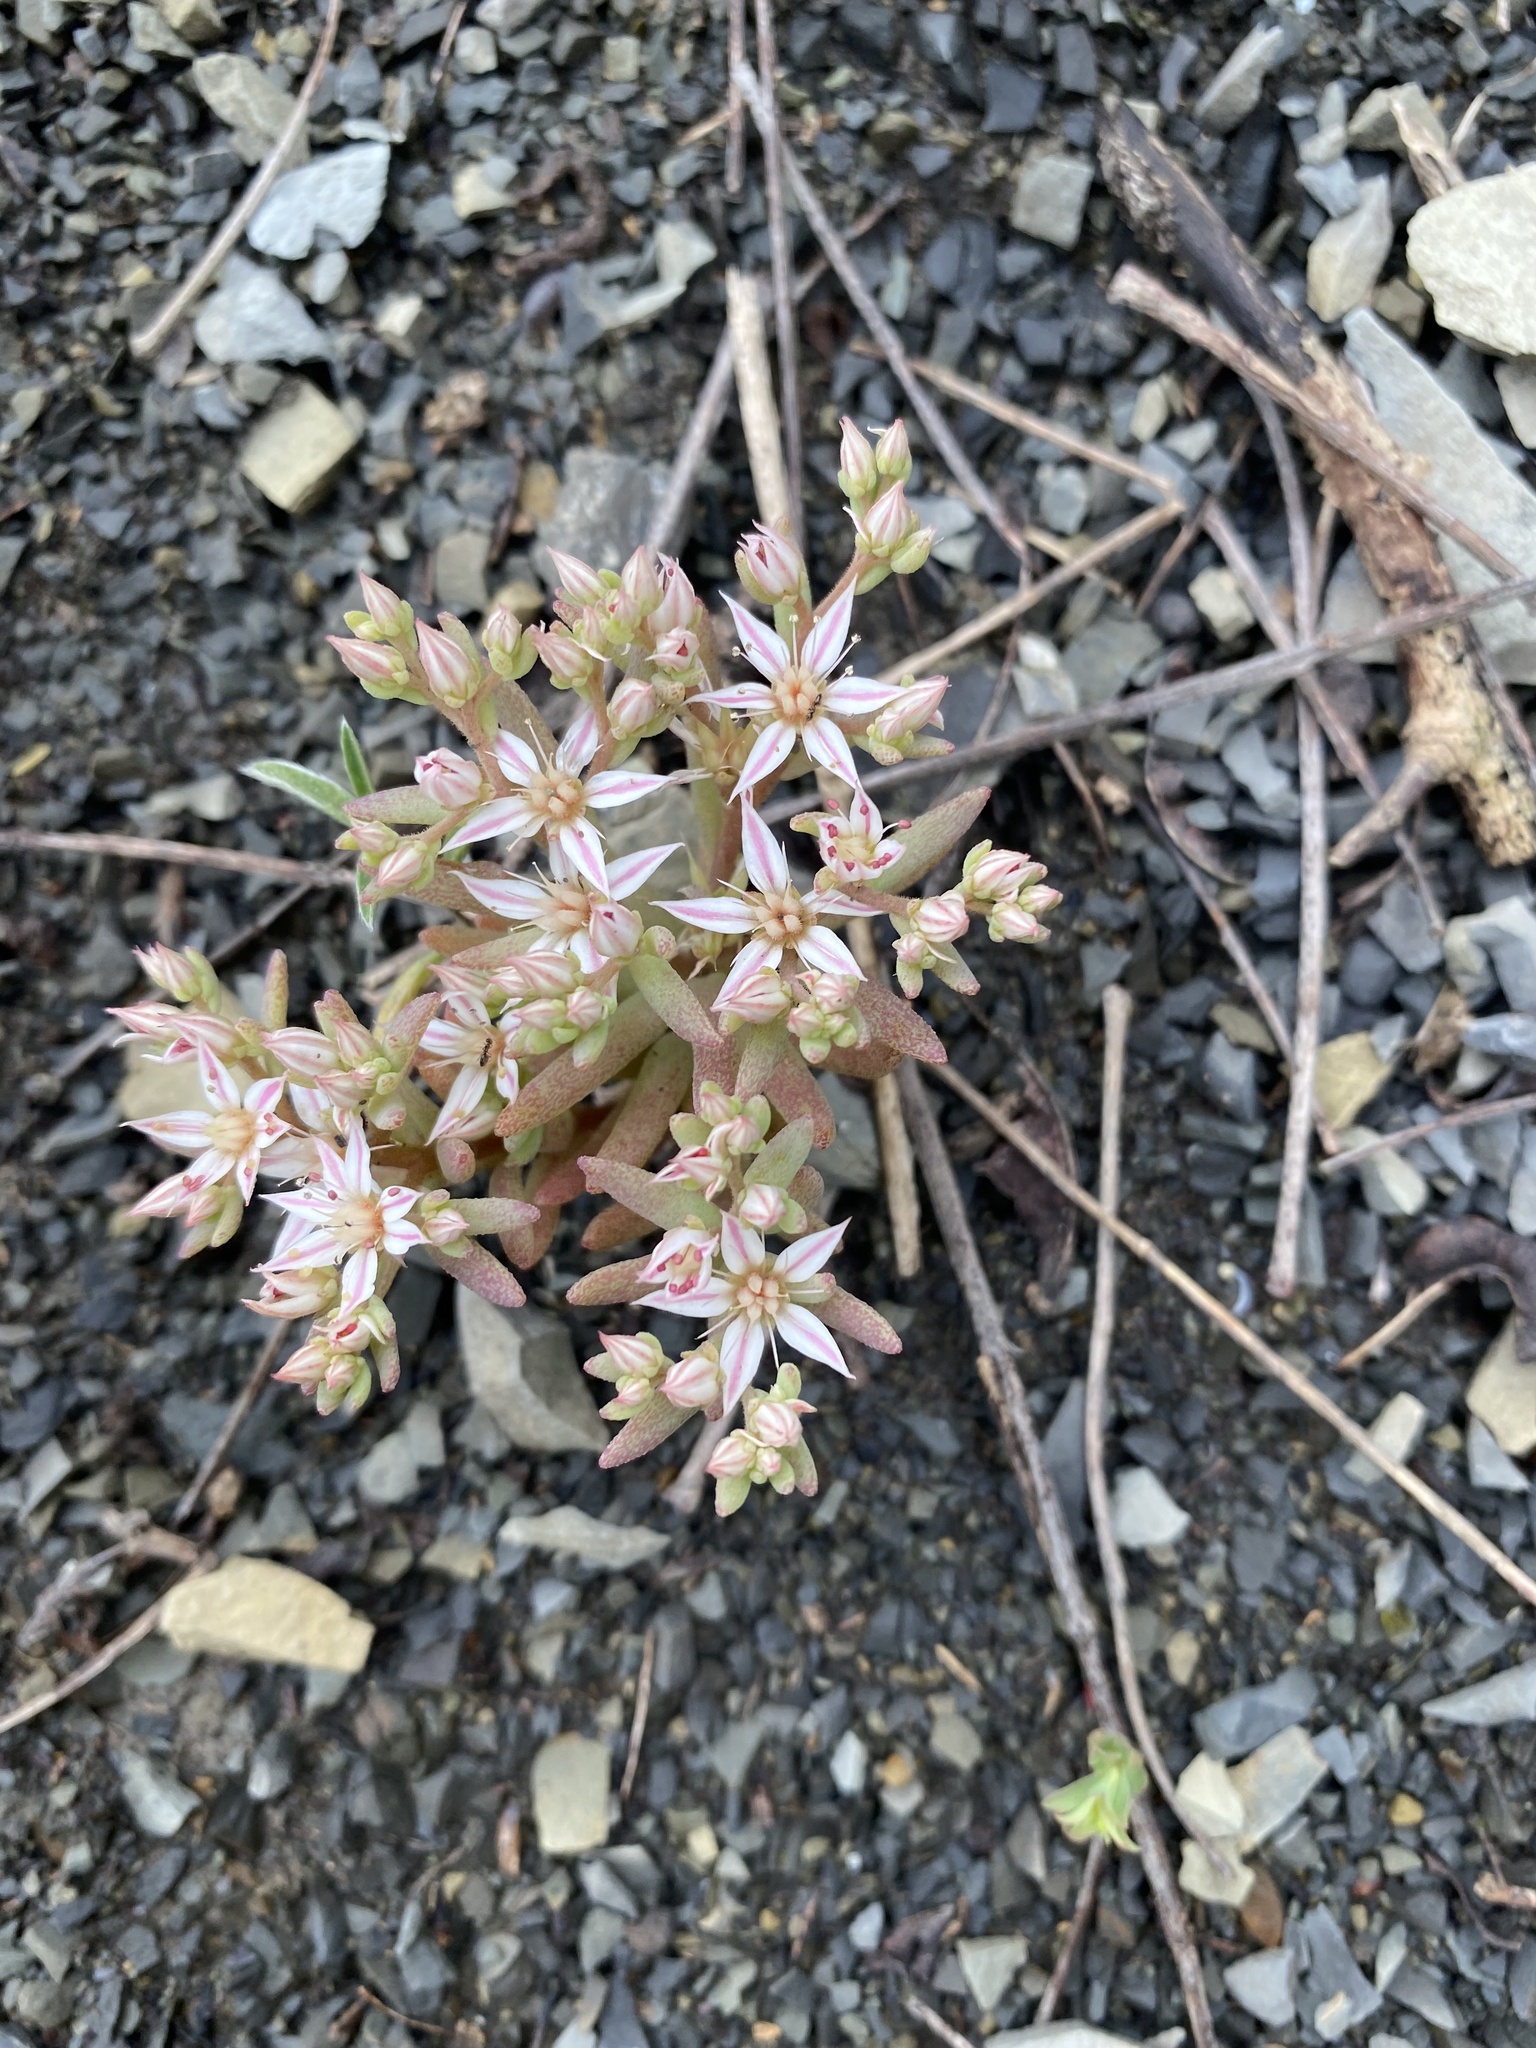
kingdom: Plantae
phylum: Tracheophyta
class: Magnoliopsida
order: Saxifragales
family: Crassulaceae
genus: Sedum
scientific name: Sedum hispanicum
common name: Spanish stonecrop
